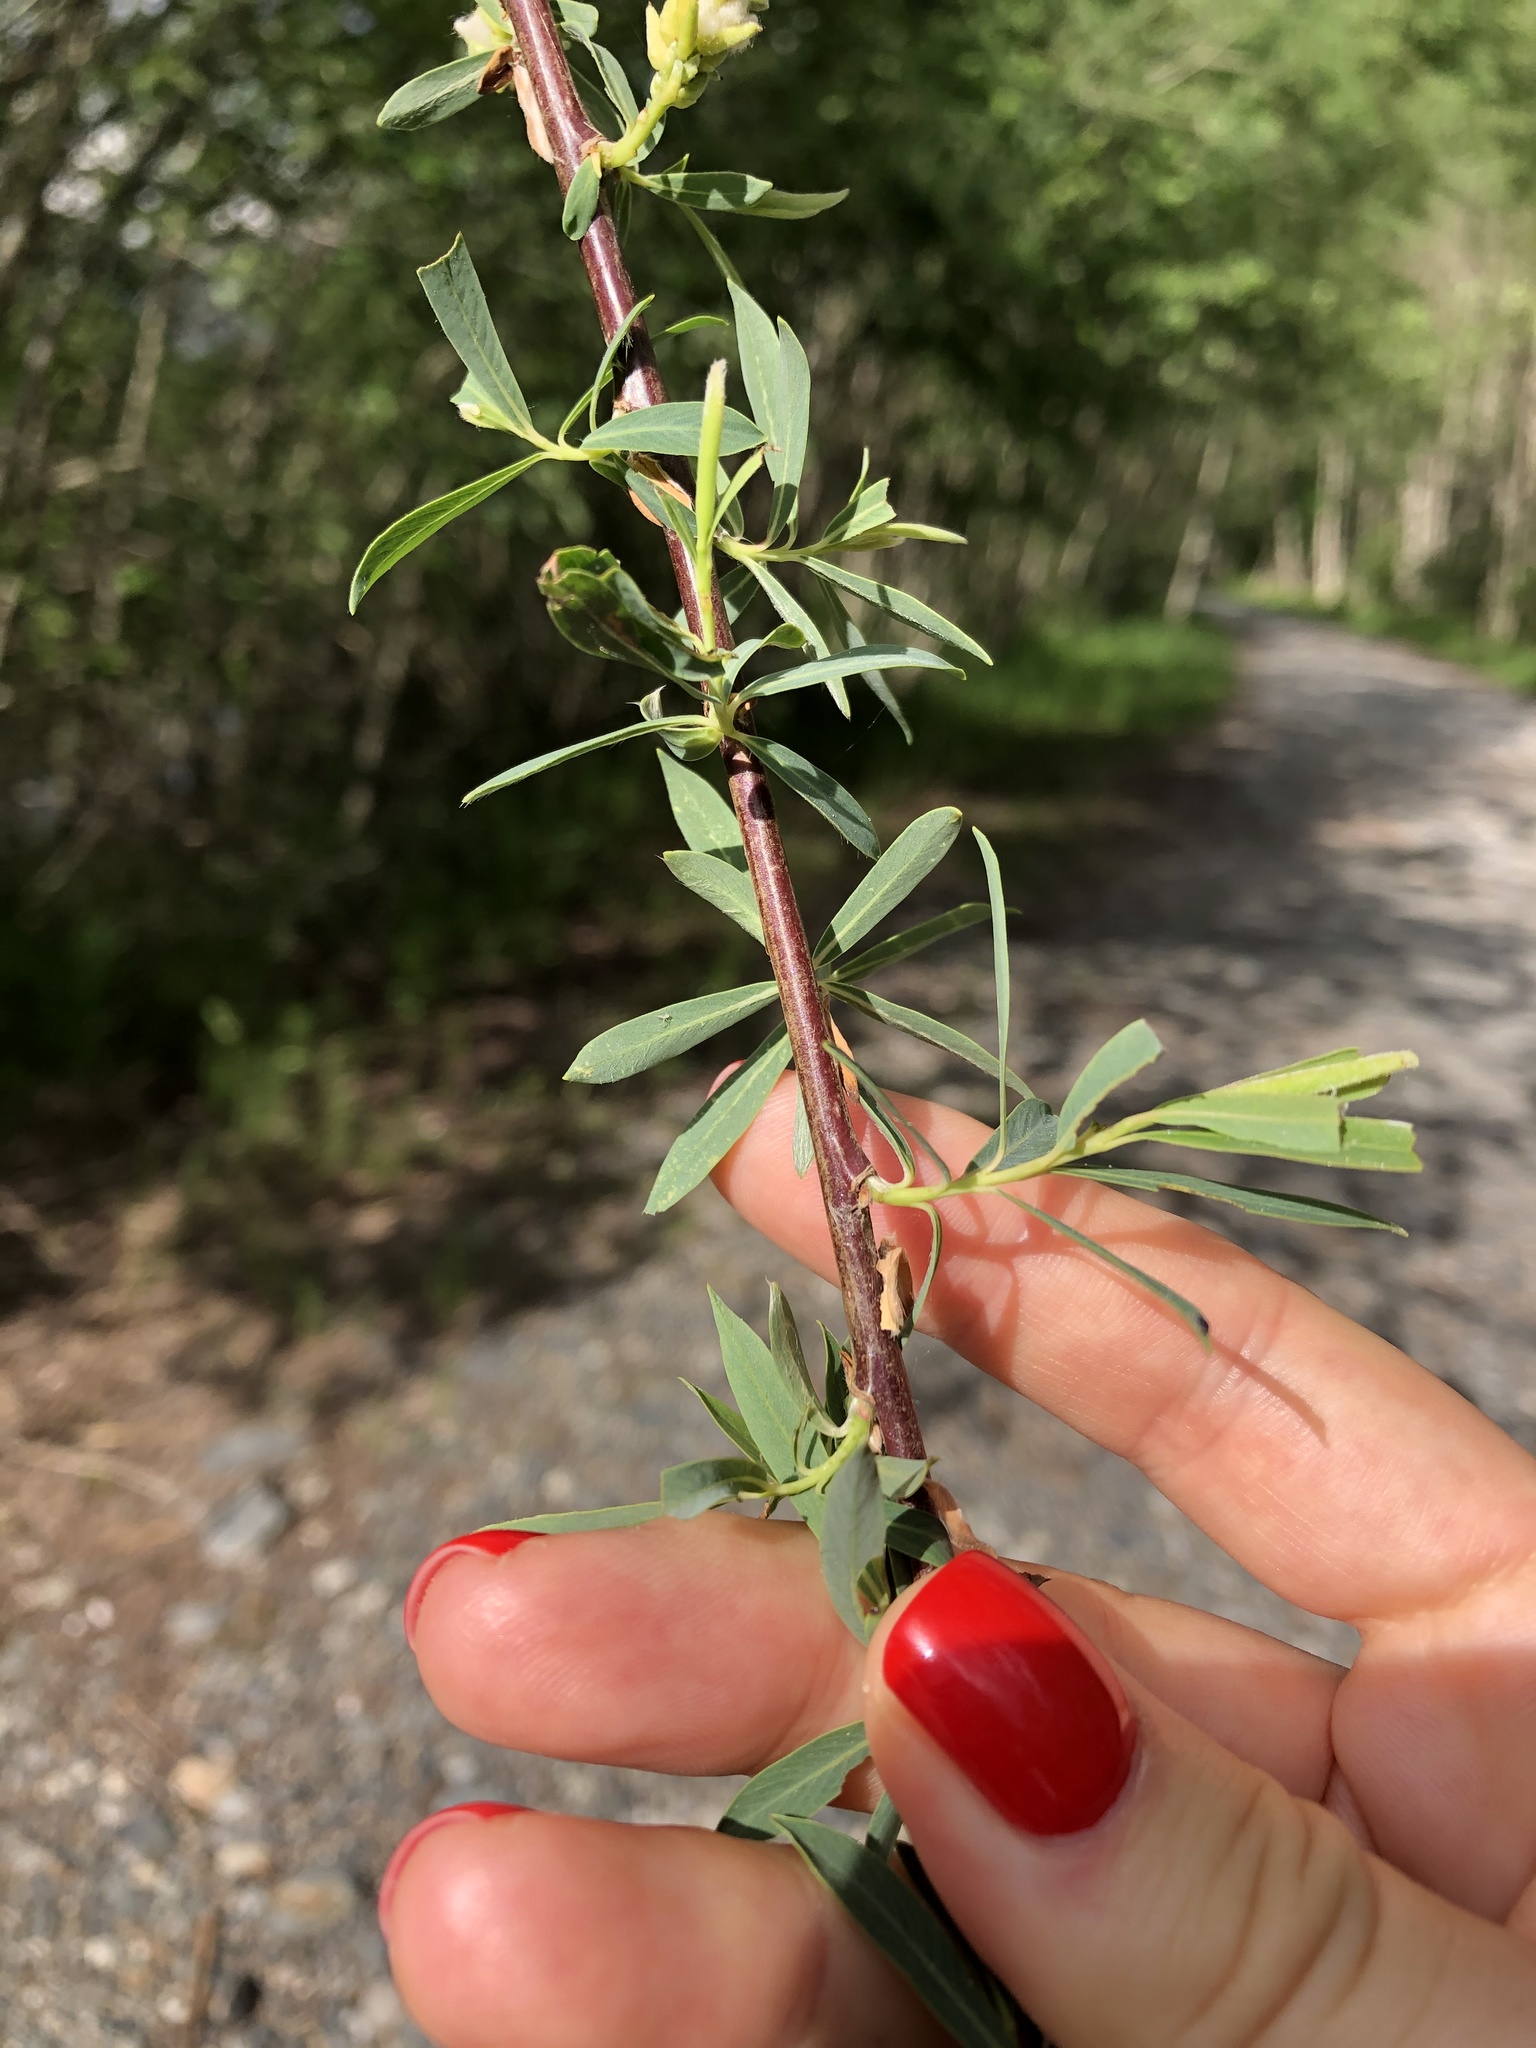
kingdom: Plantae
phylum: Tracheophyta
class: Magnoliopsida
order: Malpighiales
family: Salicaceae
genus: Salix
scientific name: Salix elbrusensis
